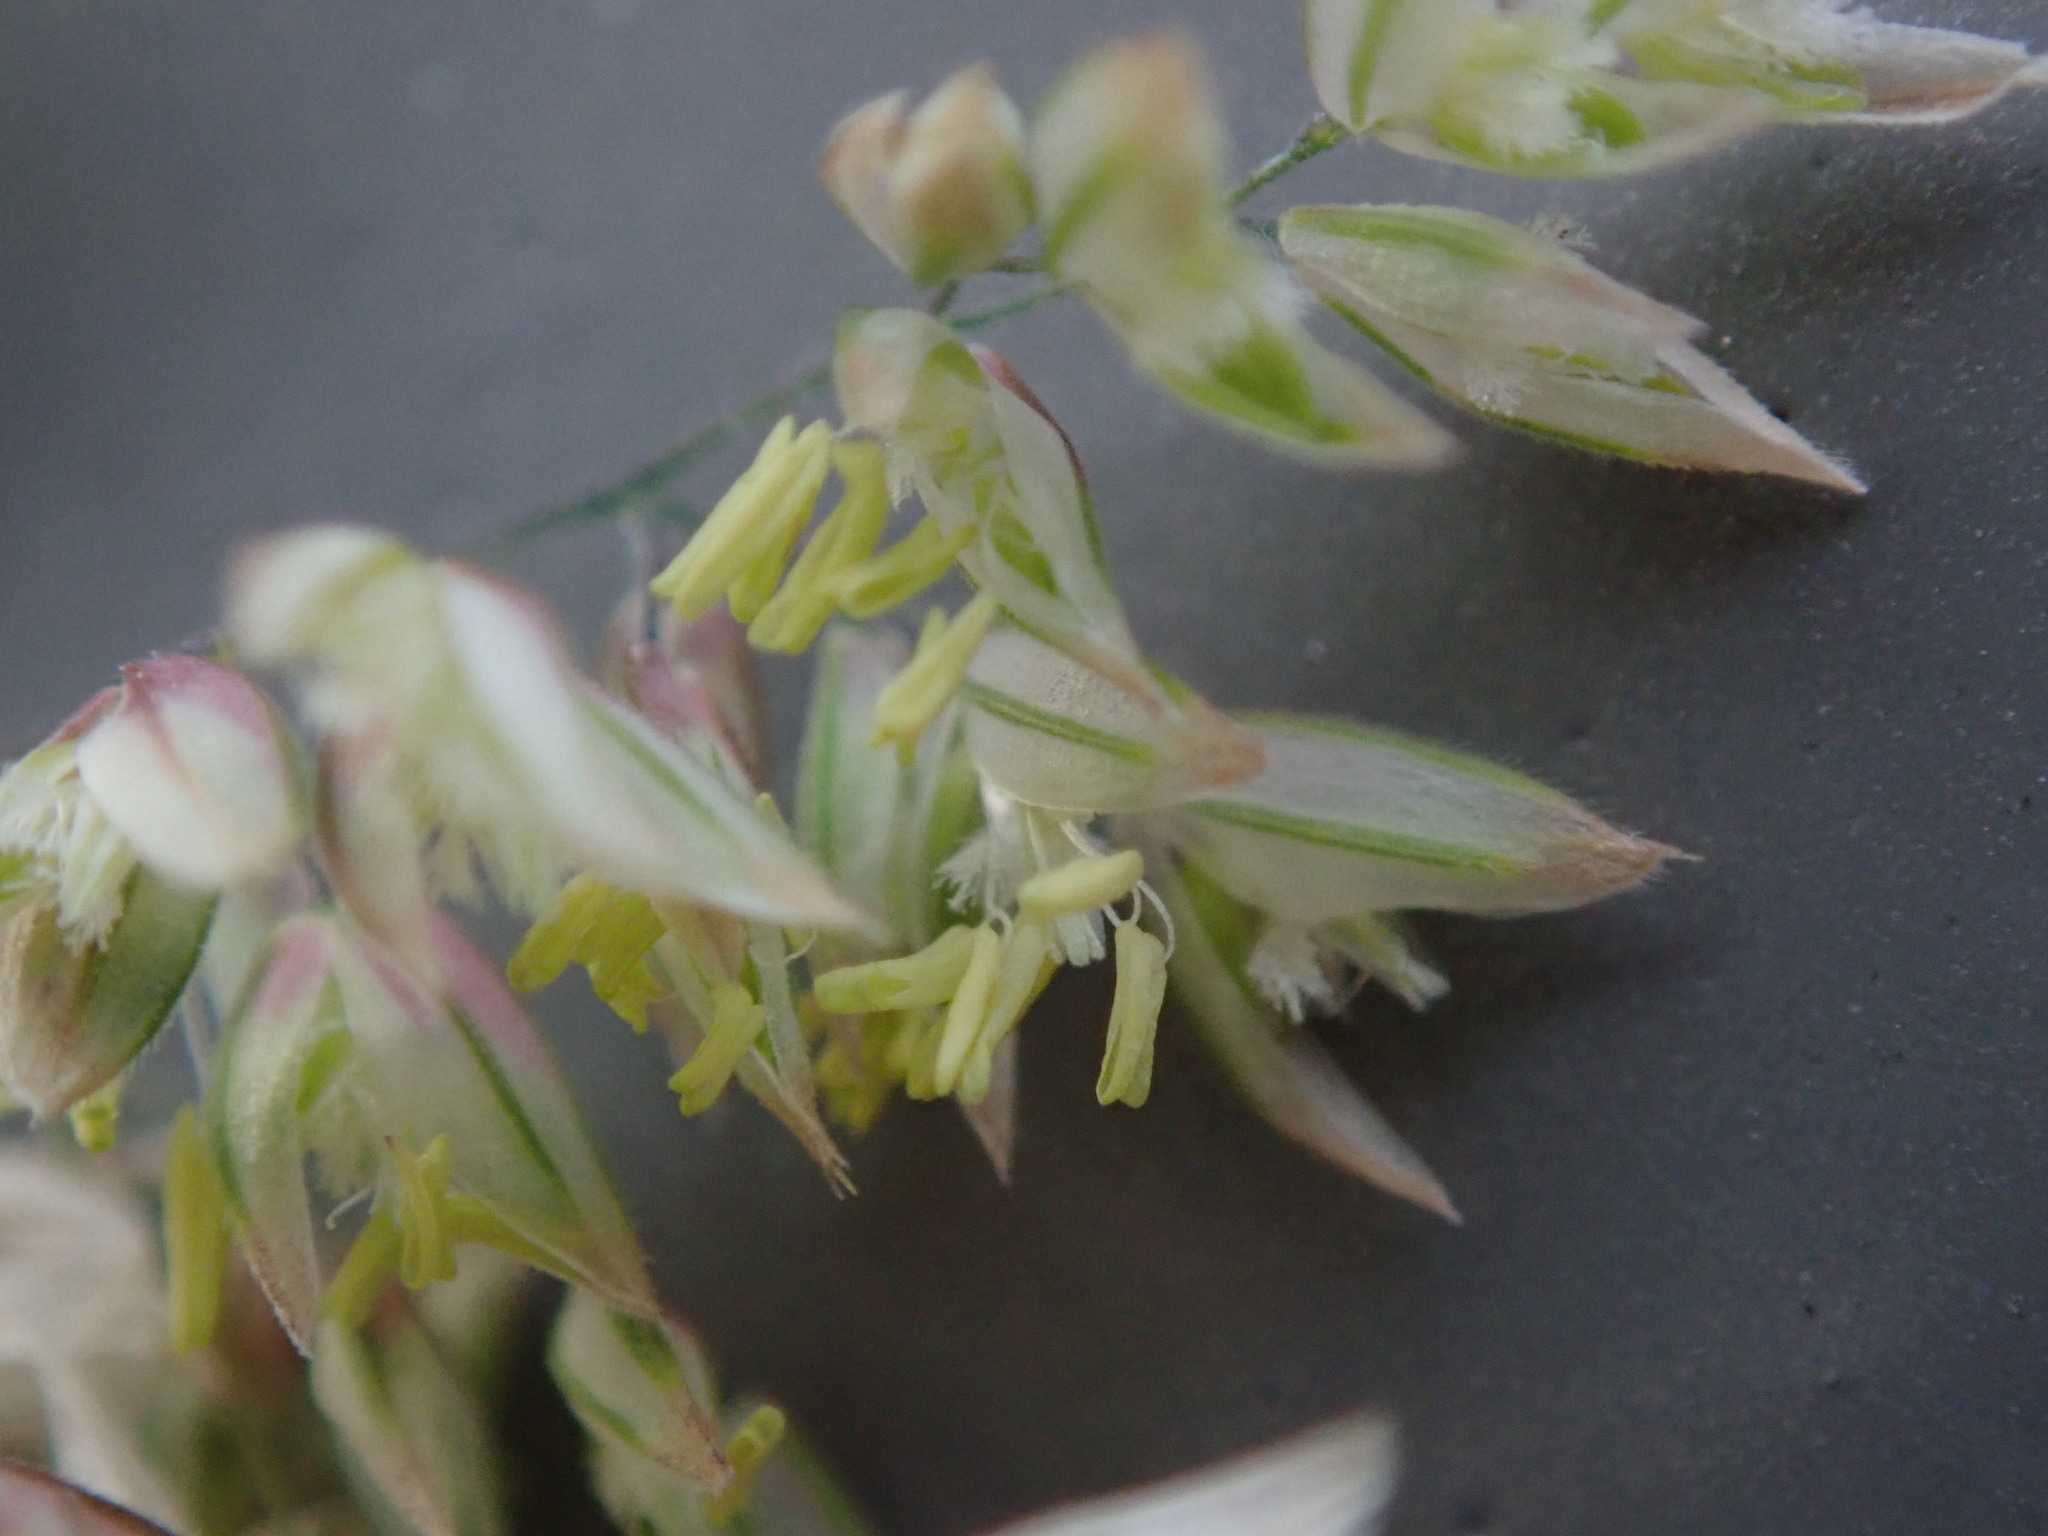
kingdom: Plantae
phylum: Tracheophyta
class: Liliopsida
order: Poales
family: Poaceae
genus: Holcus
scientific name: Holcus lanatus
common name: Yorkshire-fog
